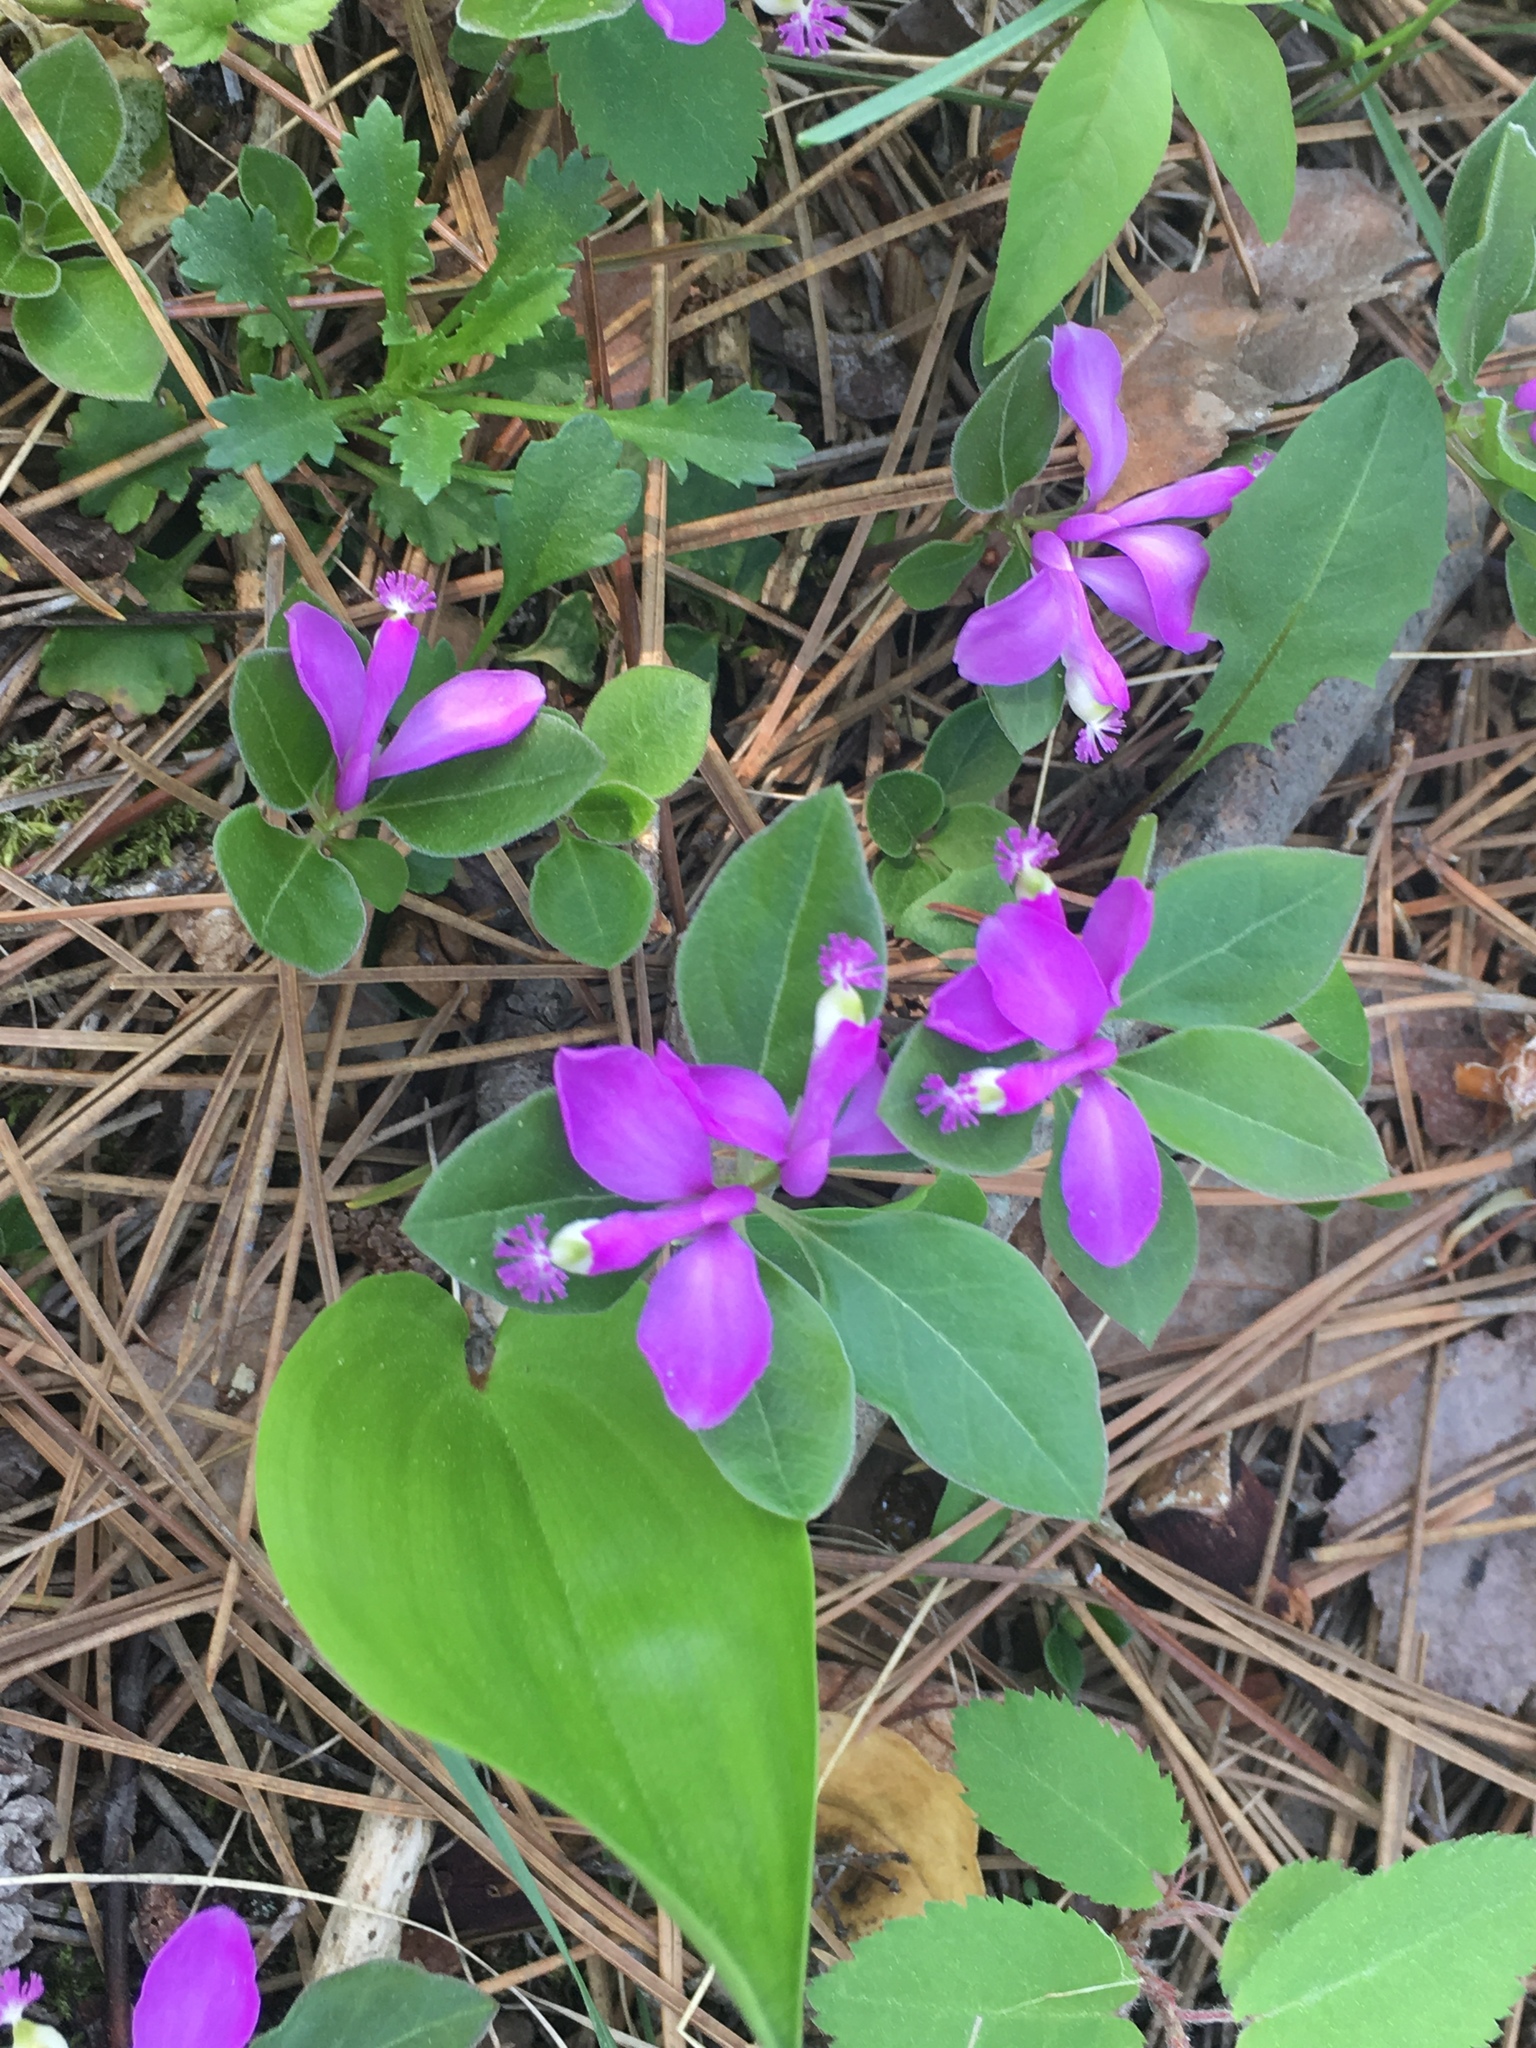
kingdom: Plantae
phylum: Tracheophyta
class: Magnoliopsida
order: Fabales
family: Polygalaceae
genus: Polygaloides
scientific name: Polygaloides paucifolia
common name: Bird-on-the-wing
